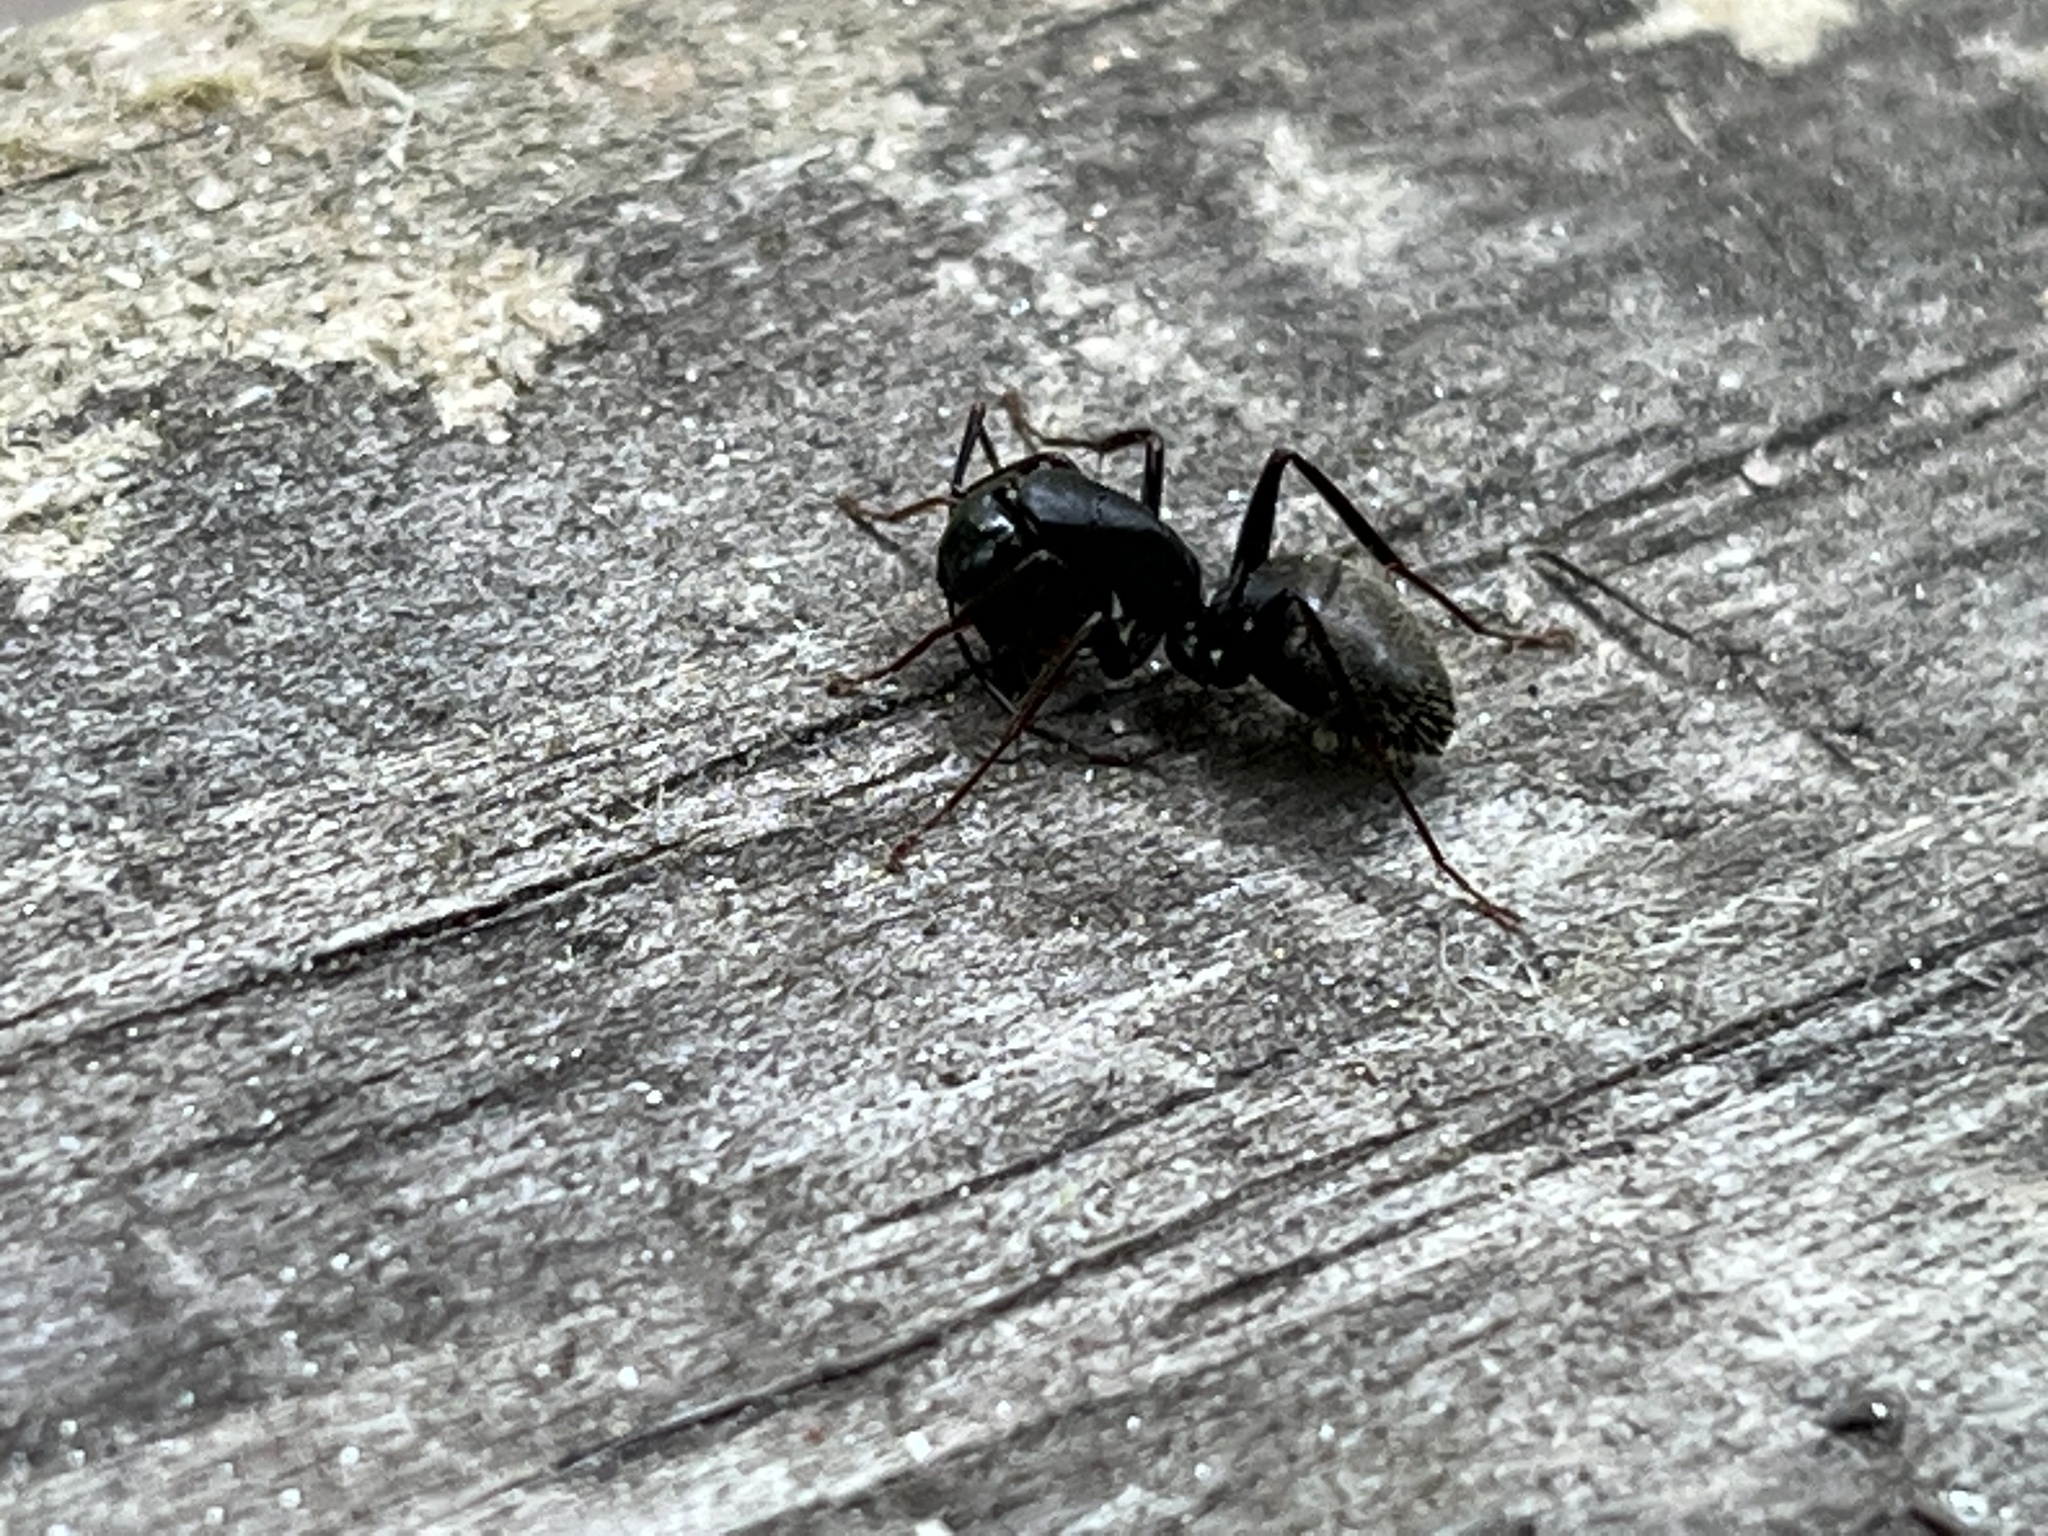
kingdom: Animalia
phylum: Arthropoda
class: Insecta
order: Hymenoptera
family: Formicidae
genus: Camponotus
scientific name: Camponotus pennsylvanicus
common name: Black carpenter ant
